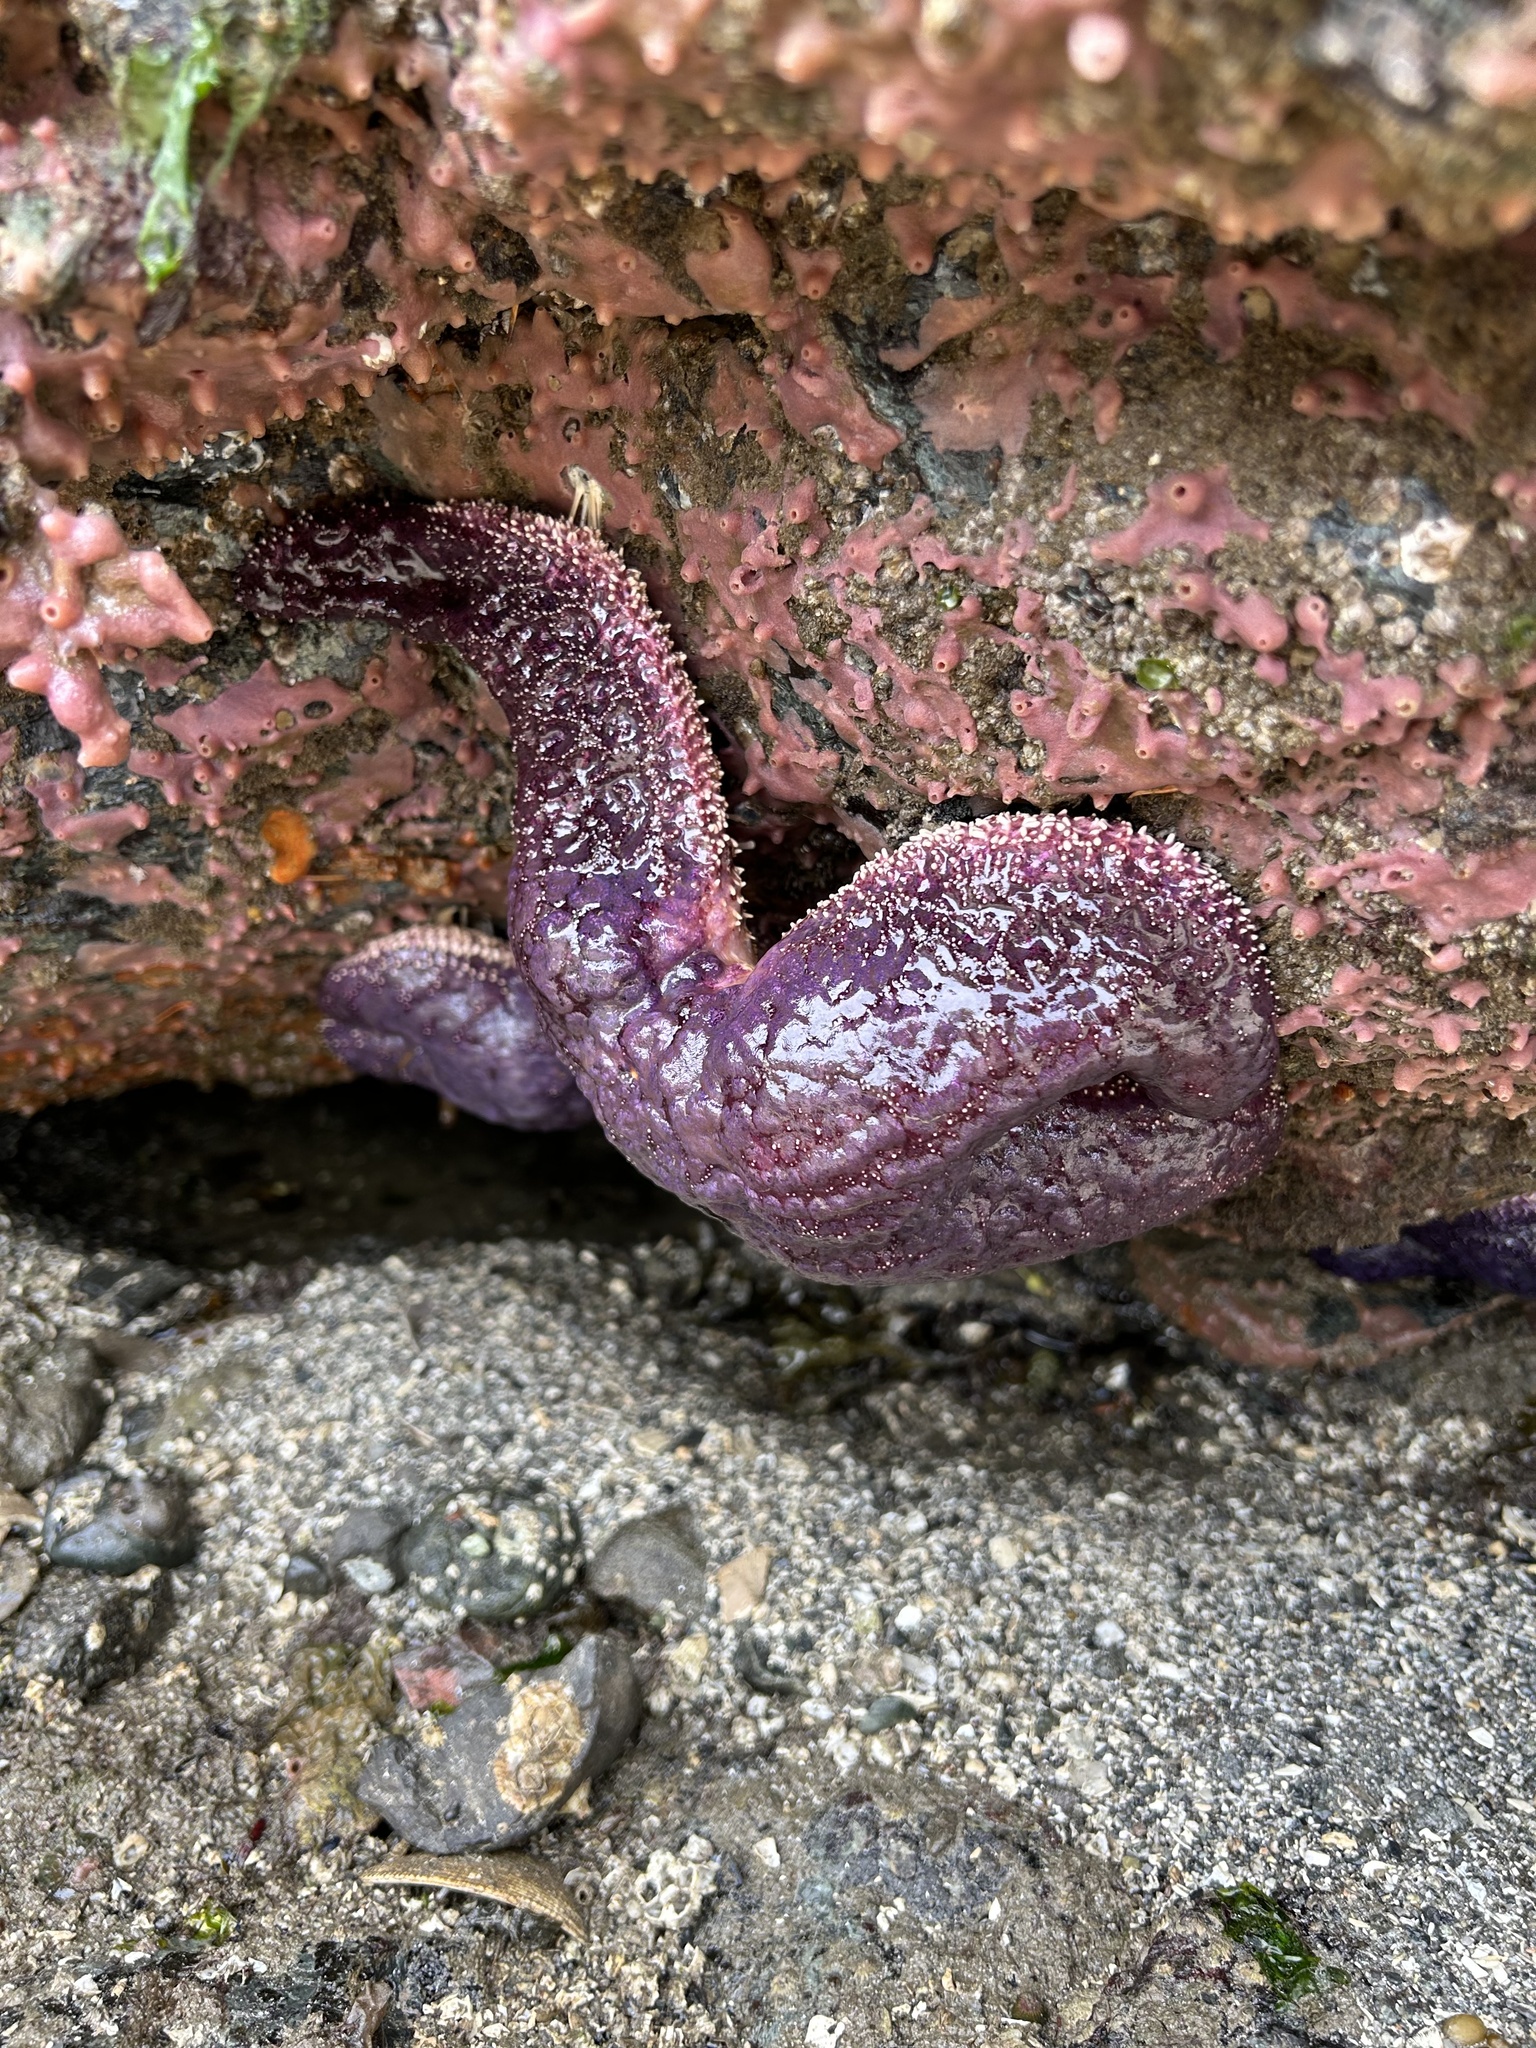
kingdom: Animalia
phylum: Echinodermata
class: Asteroidea
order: Forcipulatida
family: Asteriidae
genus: Pisaster
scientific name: Pisaster ochraceus
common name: Ochre stars
